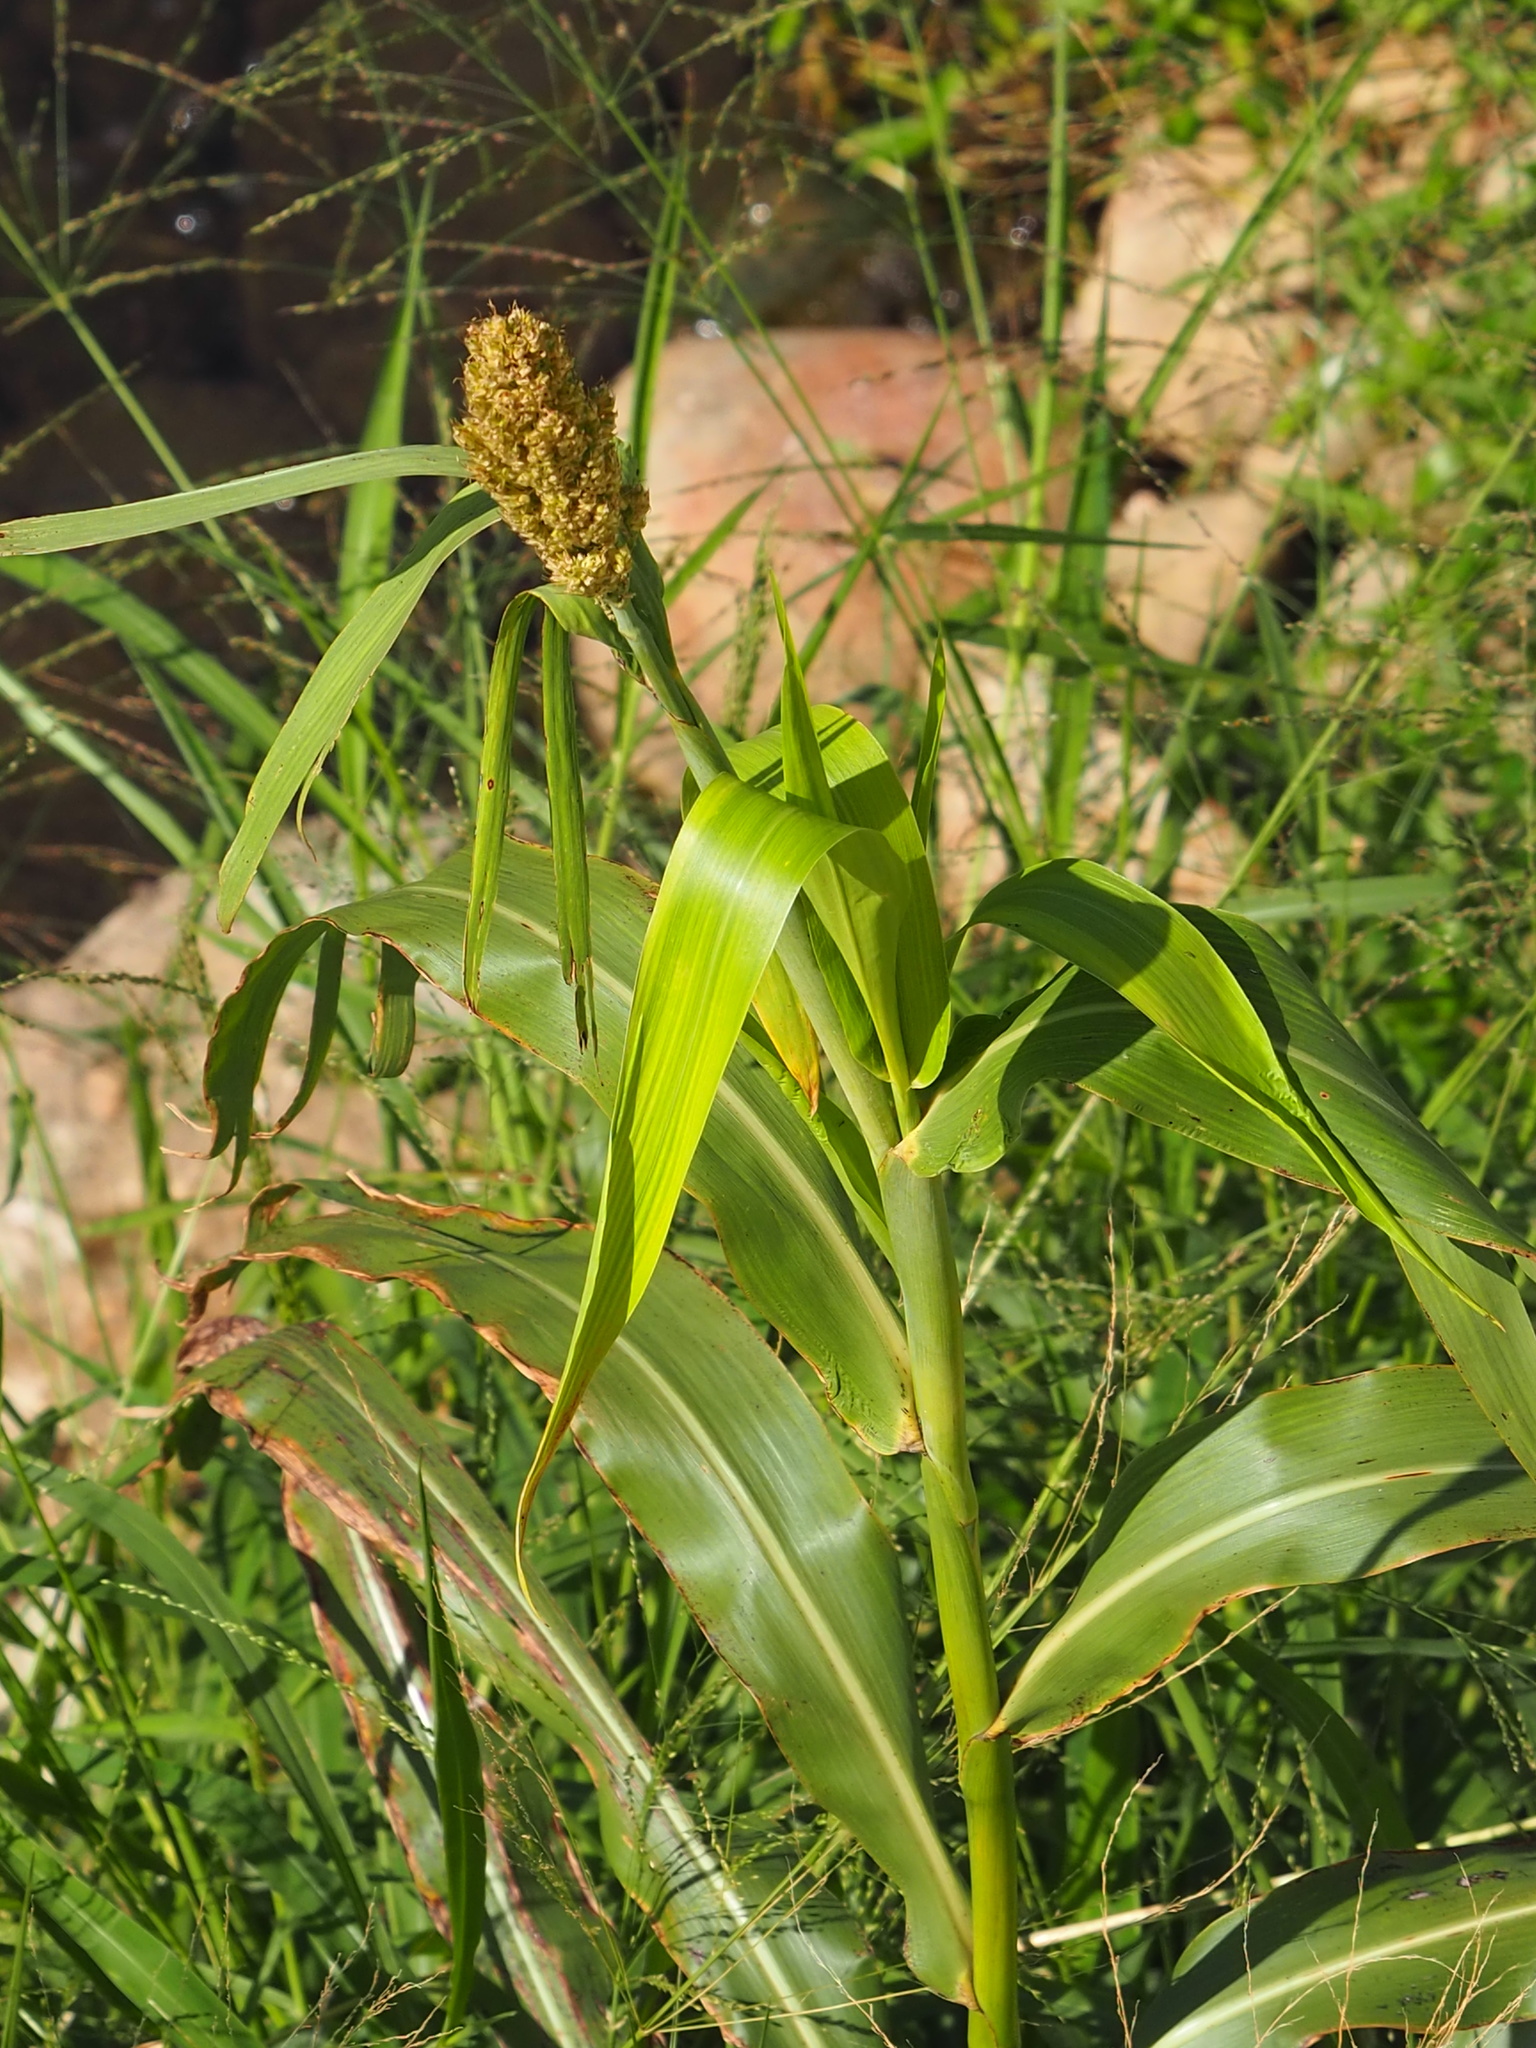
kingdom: Plantae
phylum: Tracheophyta
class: Liliopsida
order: Poales
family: Poaceae
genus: Sorghum
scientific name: Sorghum bicolor
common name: Sorghum
